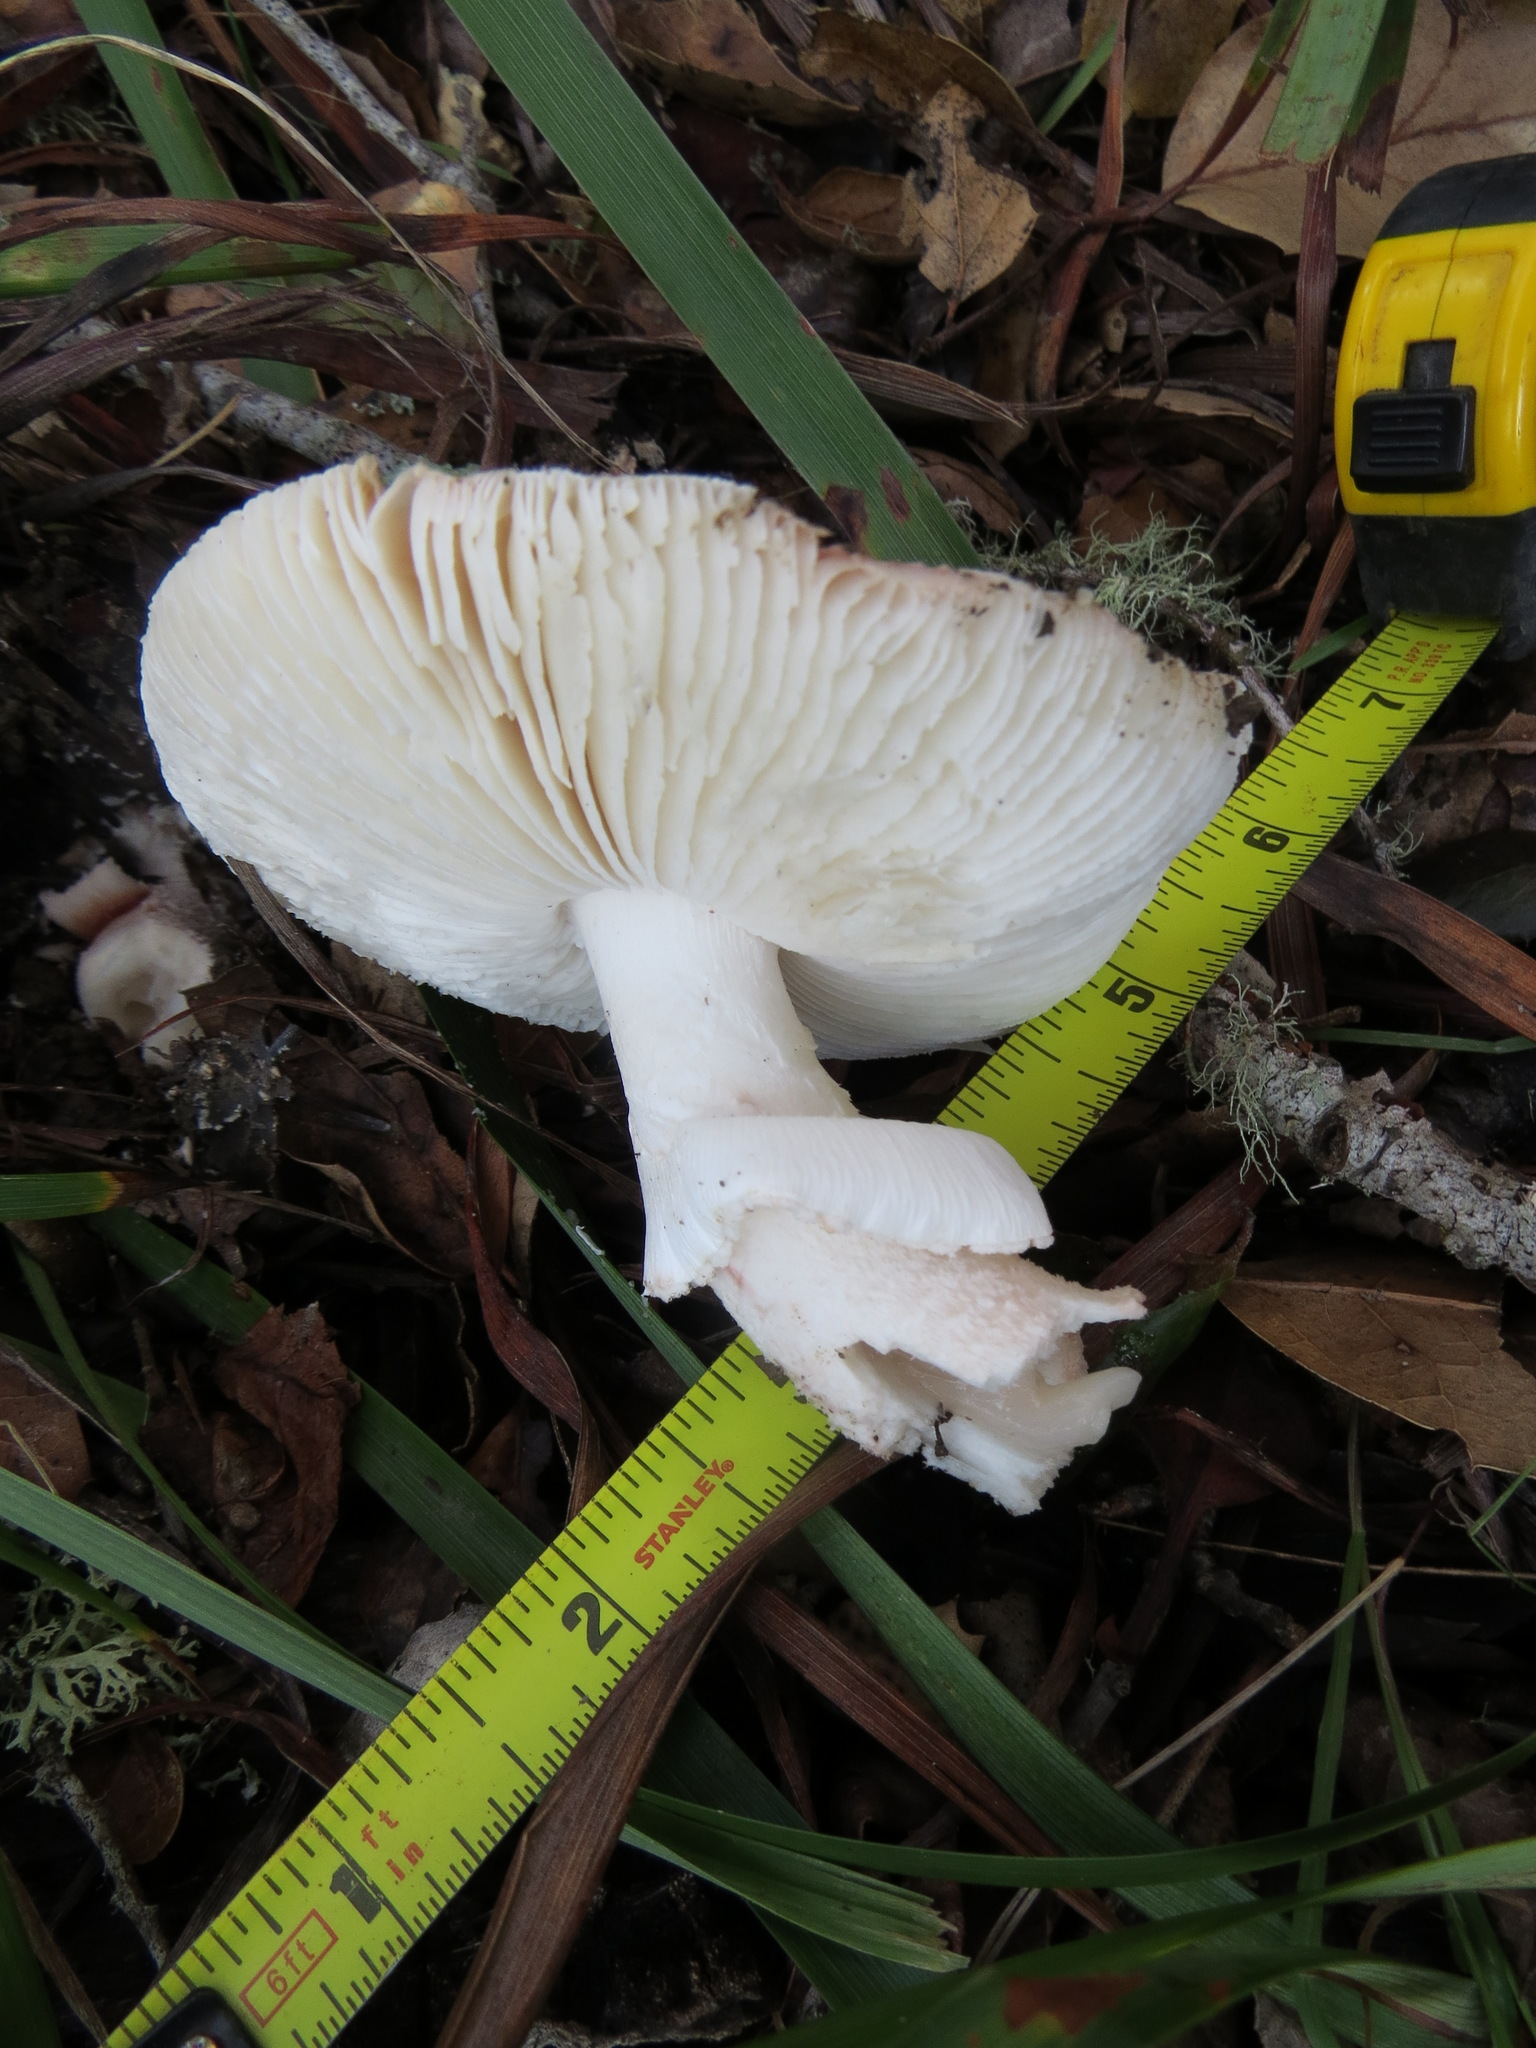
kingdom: Fungi
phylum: Basidiomycota
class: Agaricomycetes
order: Agaricales
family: Amanitaceae
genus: Amanita
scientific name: Amanita novinupta
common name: Blushing bride
